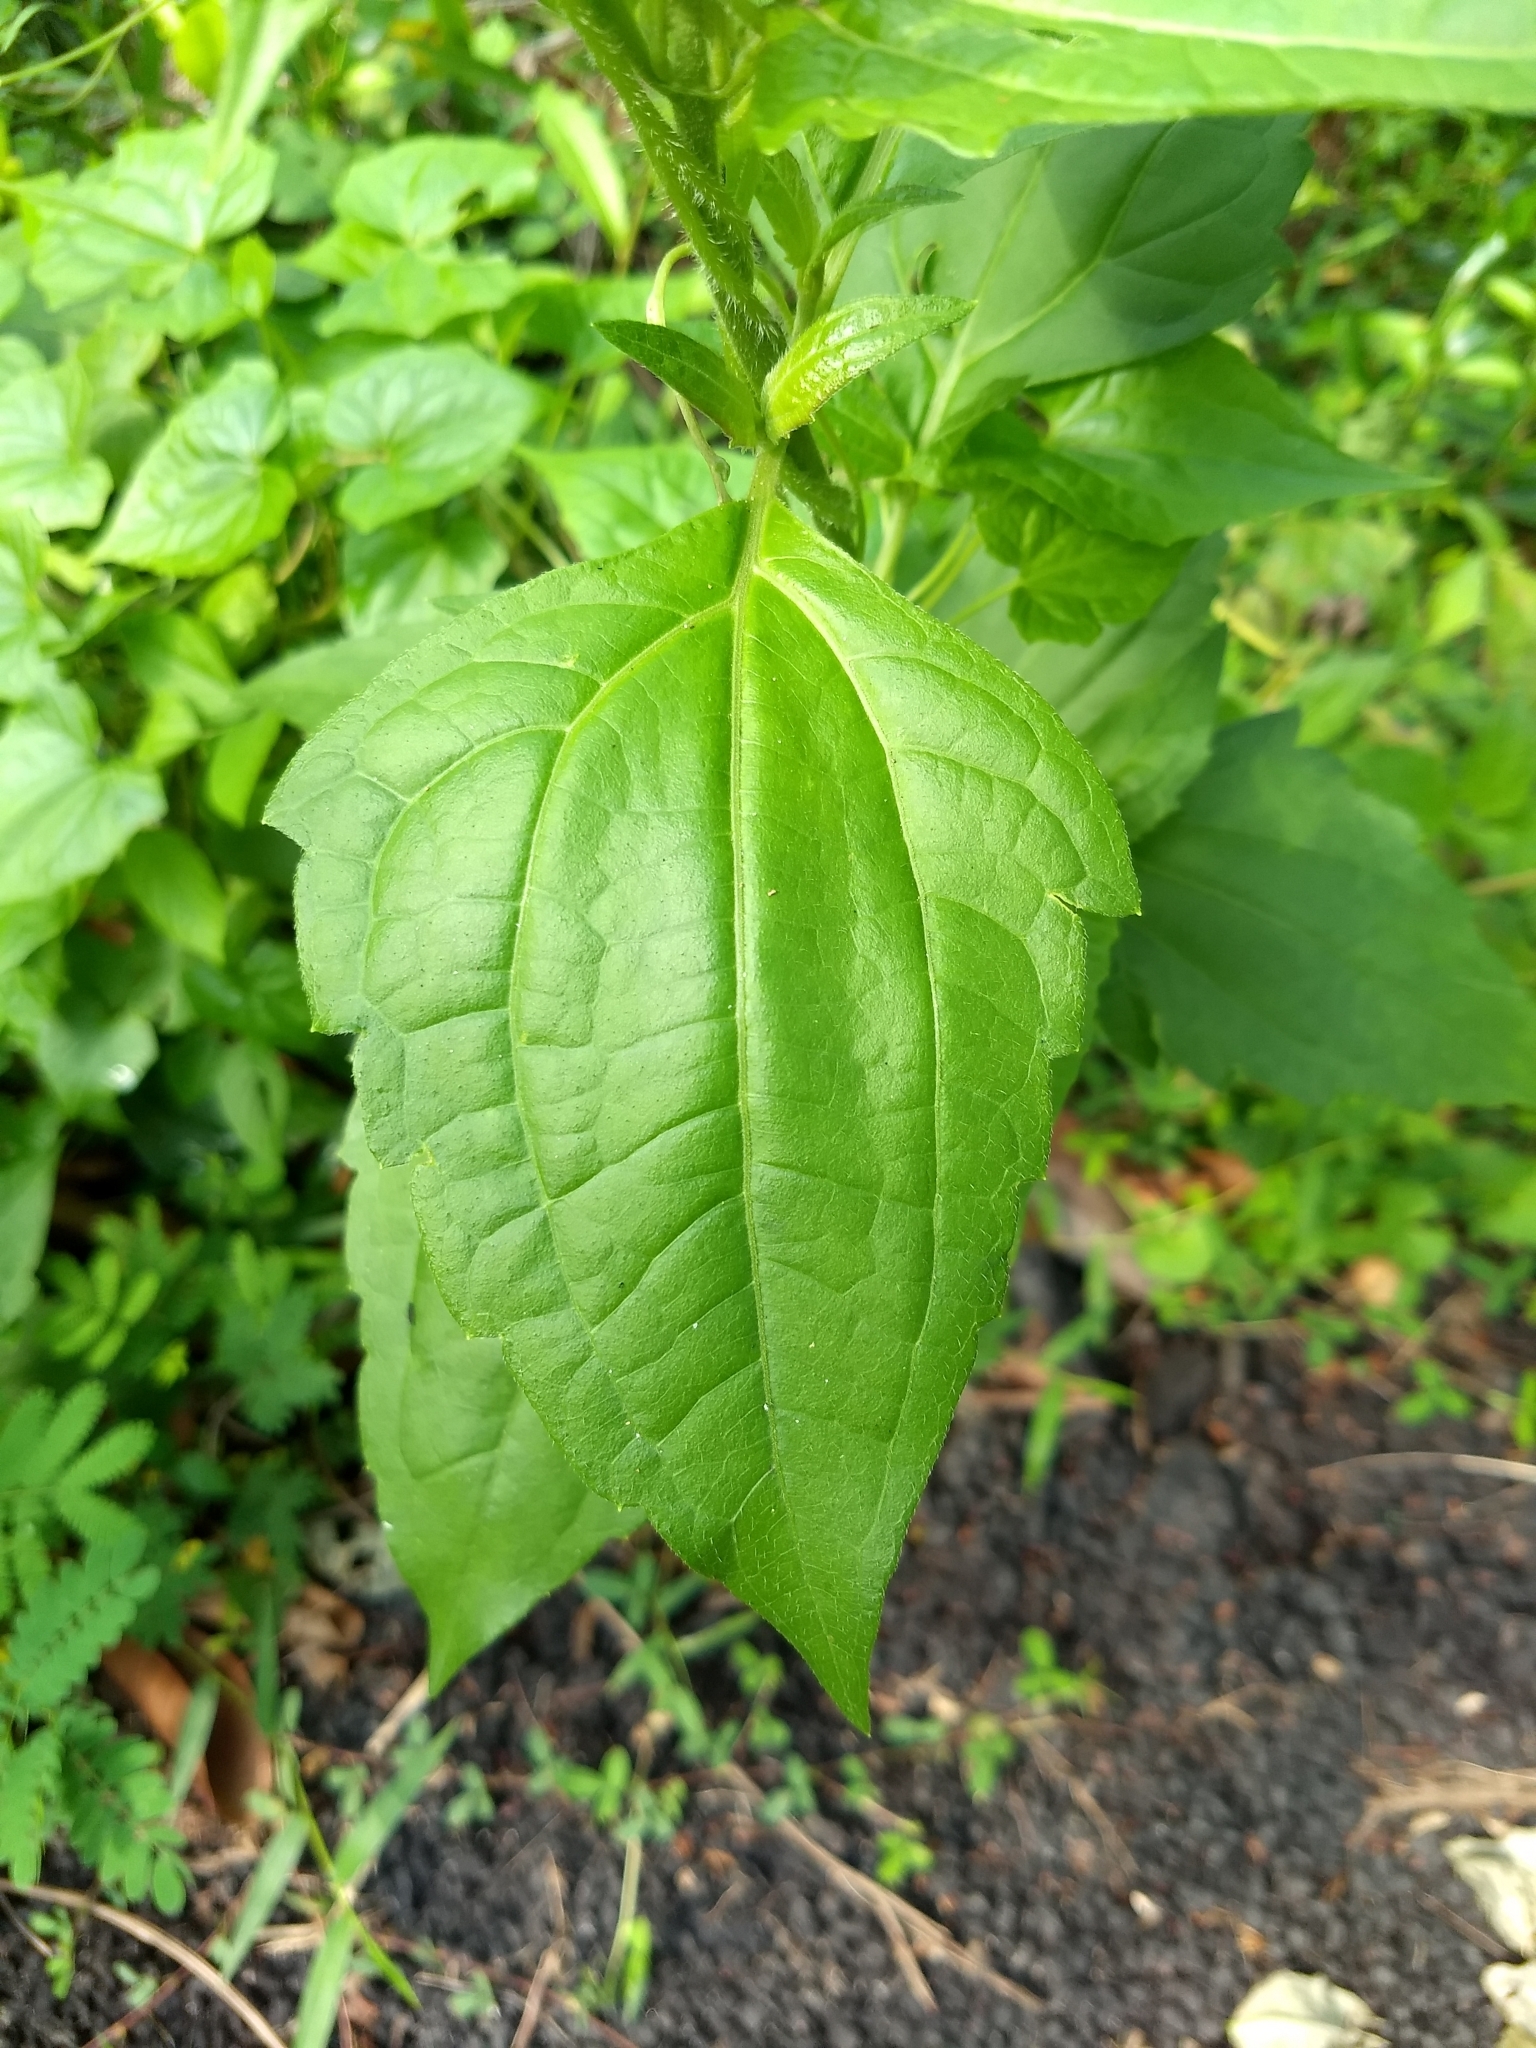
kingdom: Plantae
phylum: Tracheophyta
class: Magnoliopsida
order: Asterales
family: Asteraceae
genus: Chromolaena
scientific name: Chromolaena odorata
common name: Siamweed
